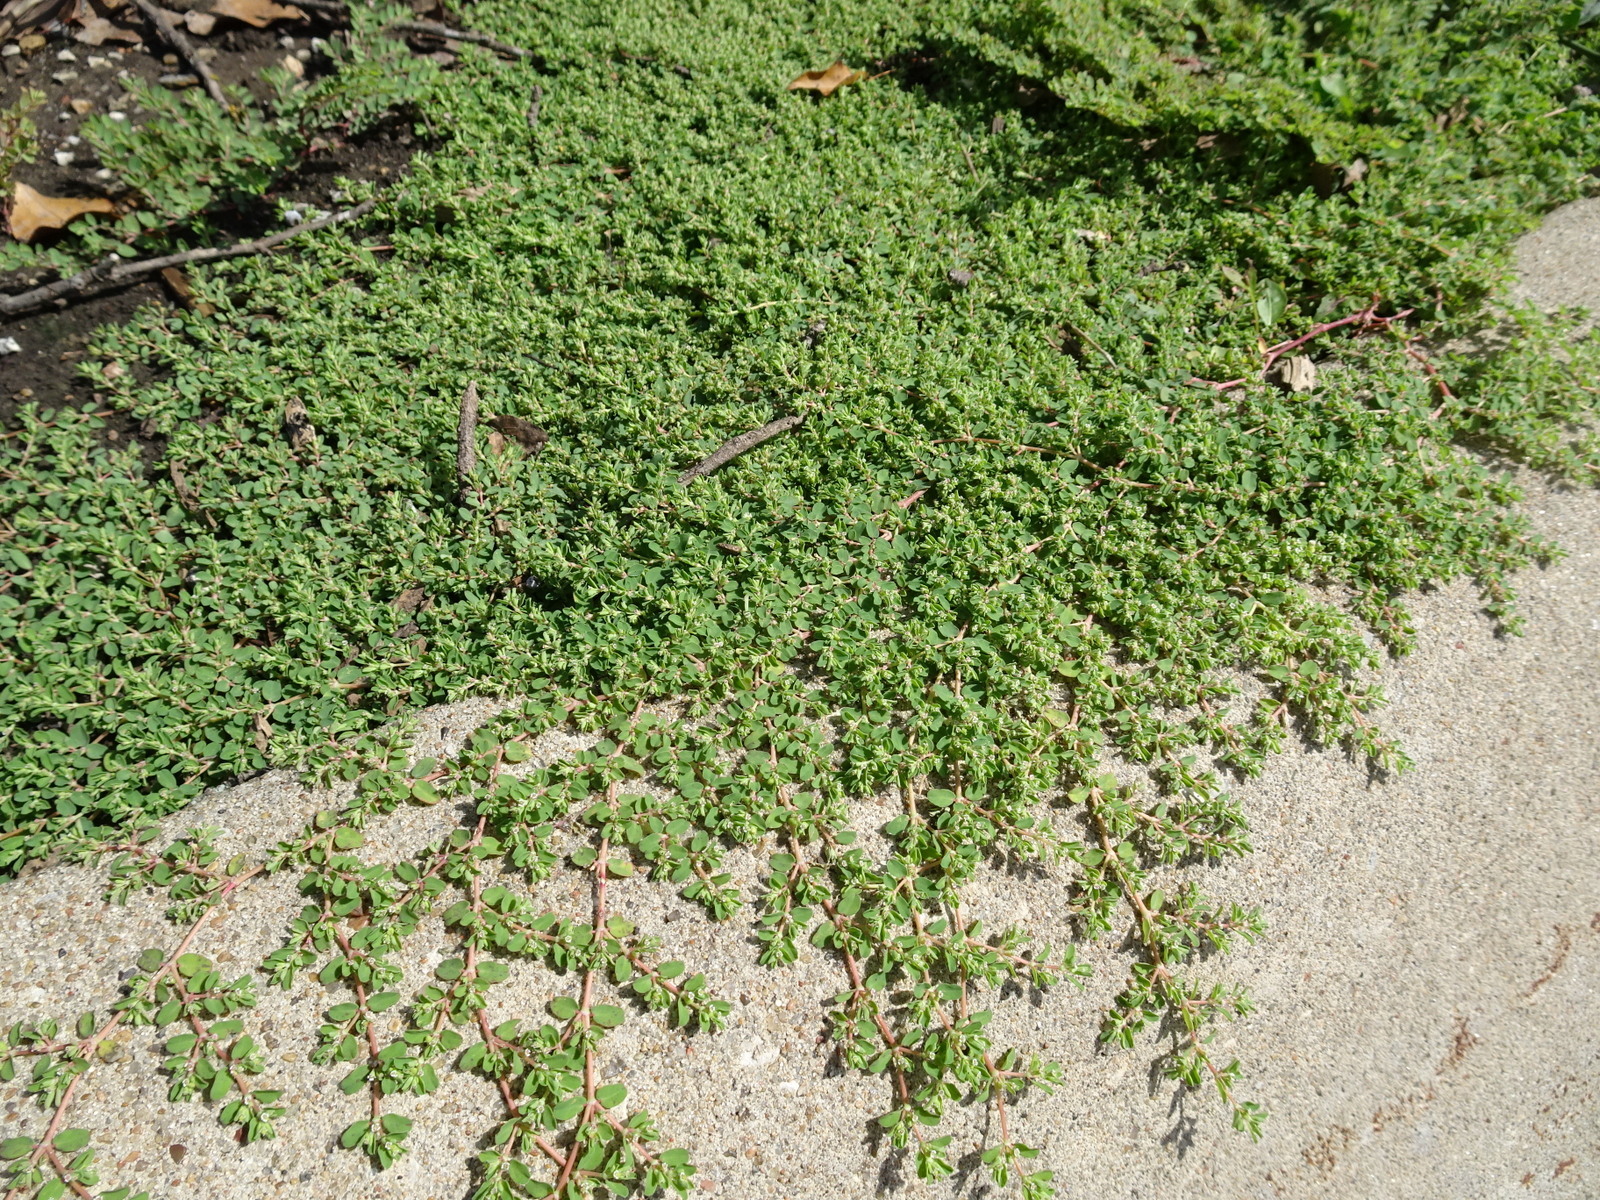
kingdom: Plantae
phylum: Tracheophyta
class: Magnoliopsida
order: Malpighiales
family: Euphorbiaceae
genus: Euphorbia
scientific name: Euphorbia serpens
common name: Matted sandmat
